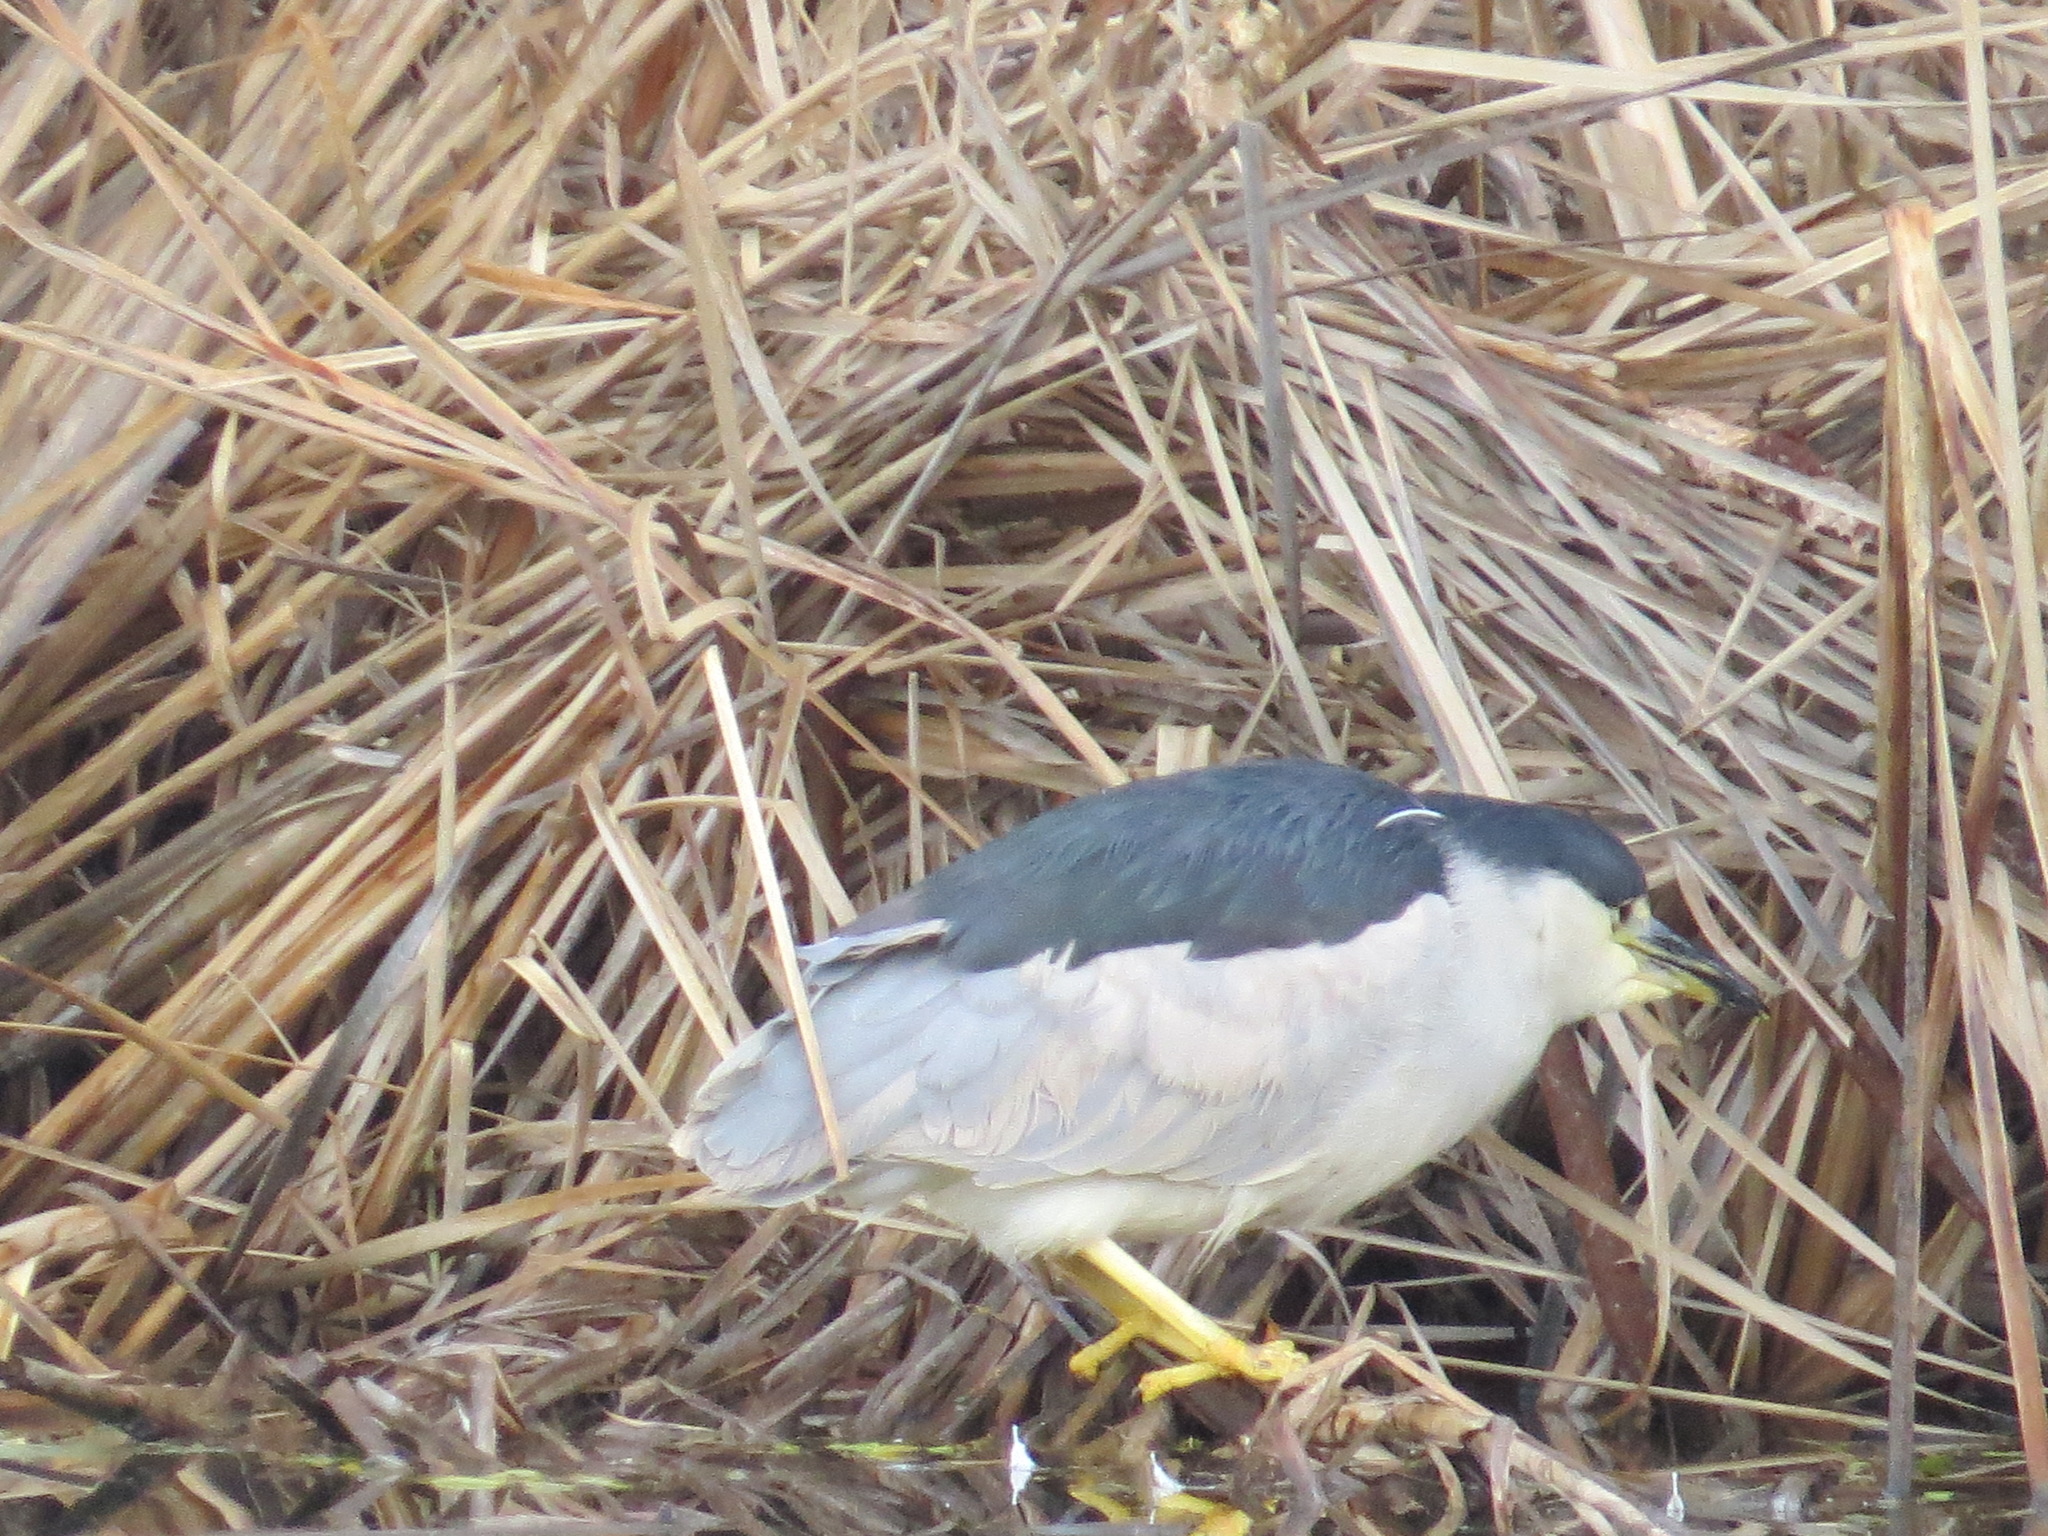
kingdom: Animalia
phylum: Chordata
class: Aves
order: Pelecaniformes
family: Ardeidae
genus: Nycticorax
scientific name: Nycticorax nycticorax
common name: Black-crowned night heron
